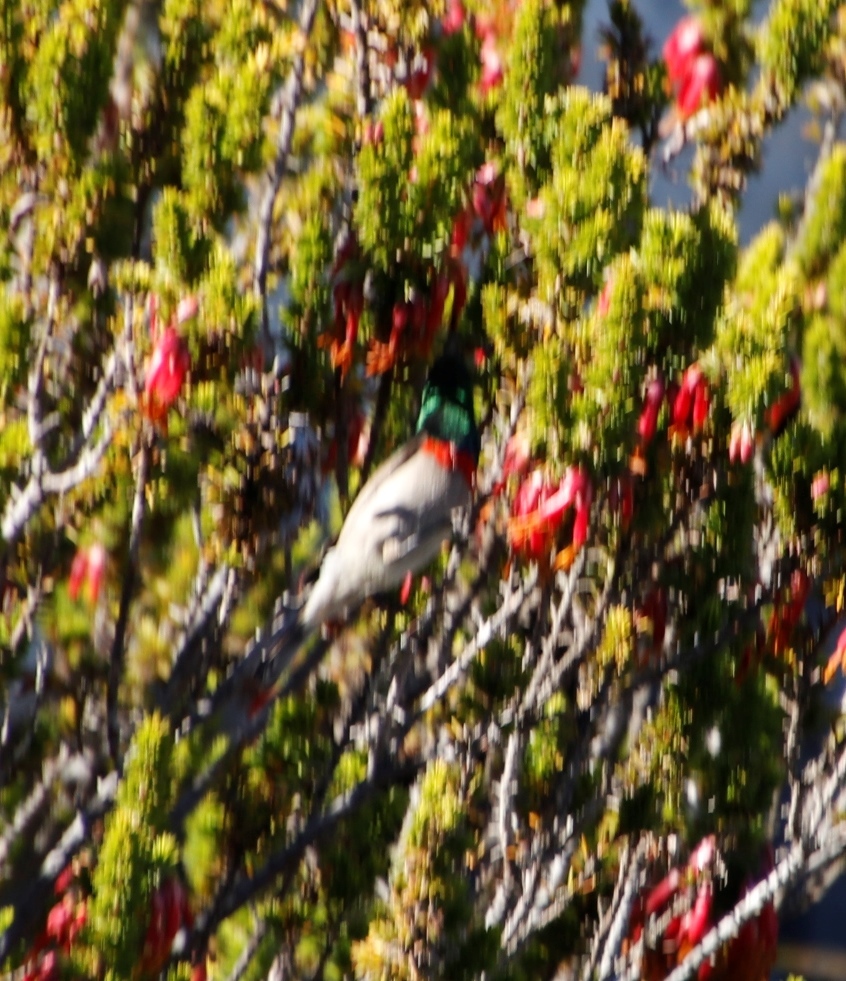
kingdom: Animalia
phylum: Chordata
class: Aves
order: Passeriformes
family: Nectariniidae
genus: Cinnyris
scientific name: Cinnyris chalybeus
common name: Southern double-collared sunbird
